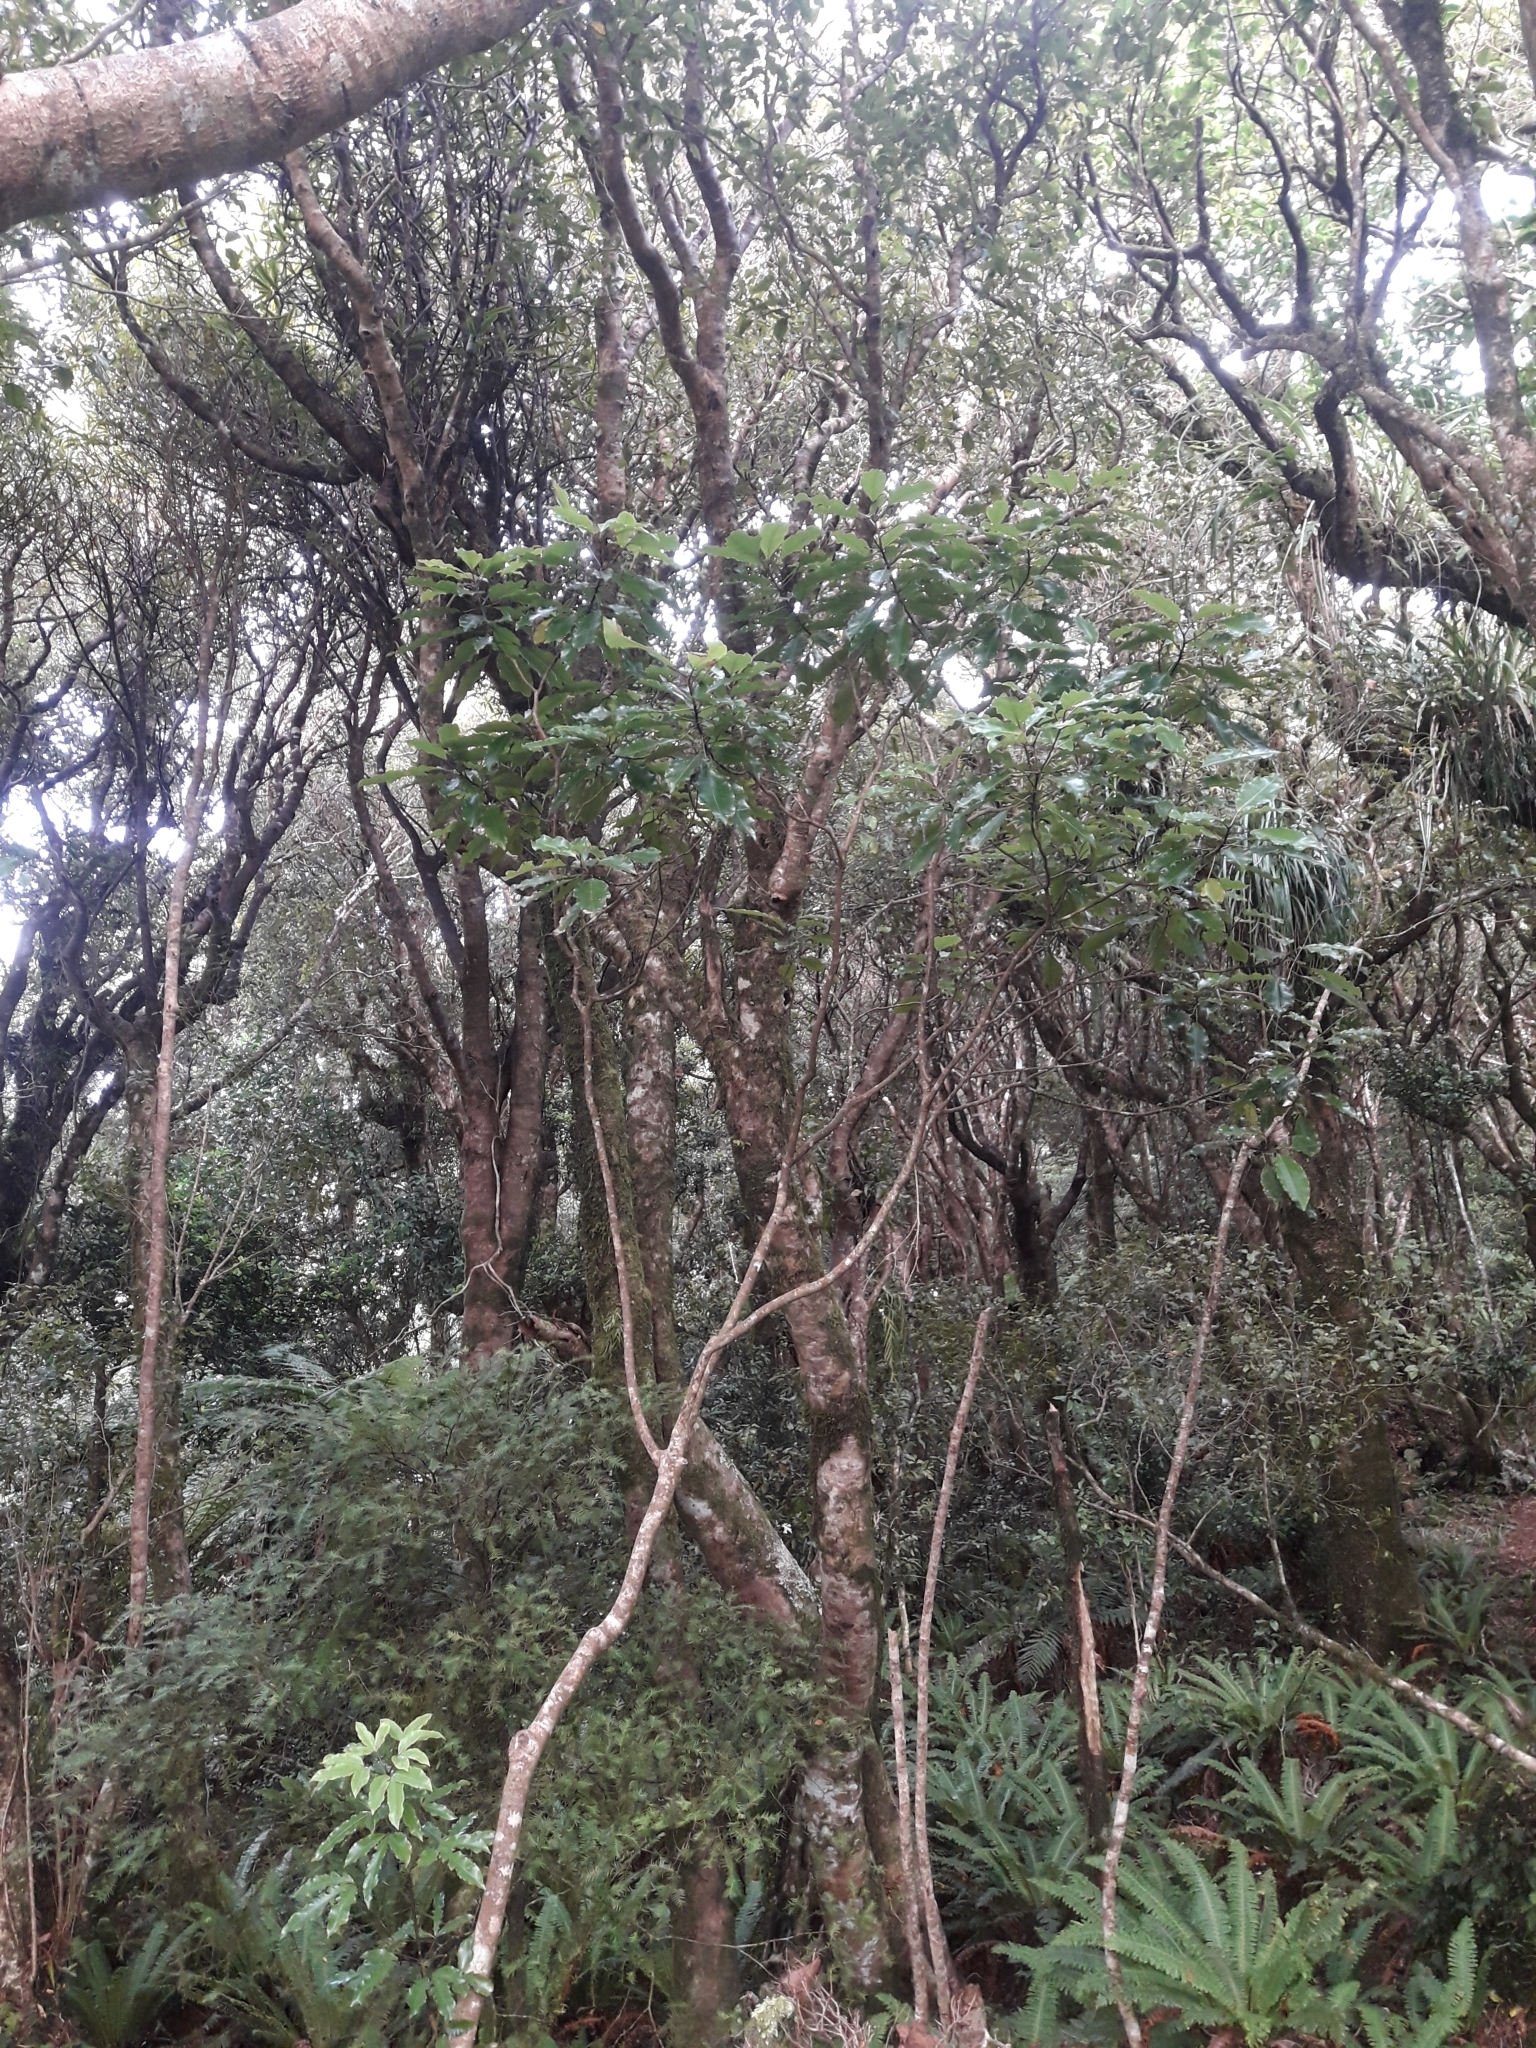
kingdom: Plantae
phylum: Tracheophyta
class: Magnoliopsida
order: Apiales
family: Araliaceae
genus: Raukaua
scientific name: Raukaua edgerleyi
